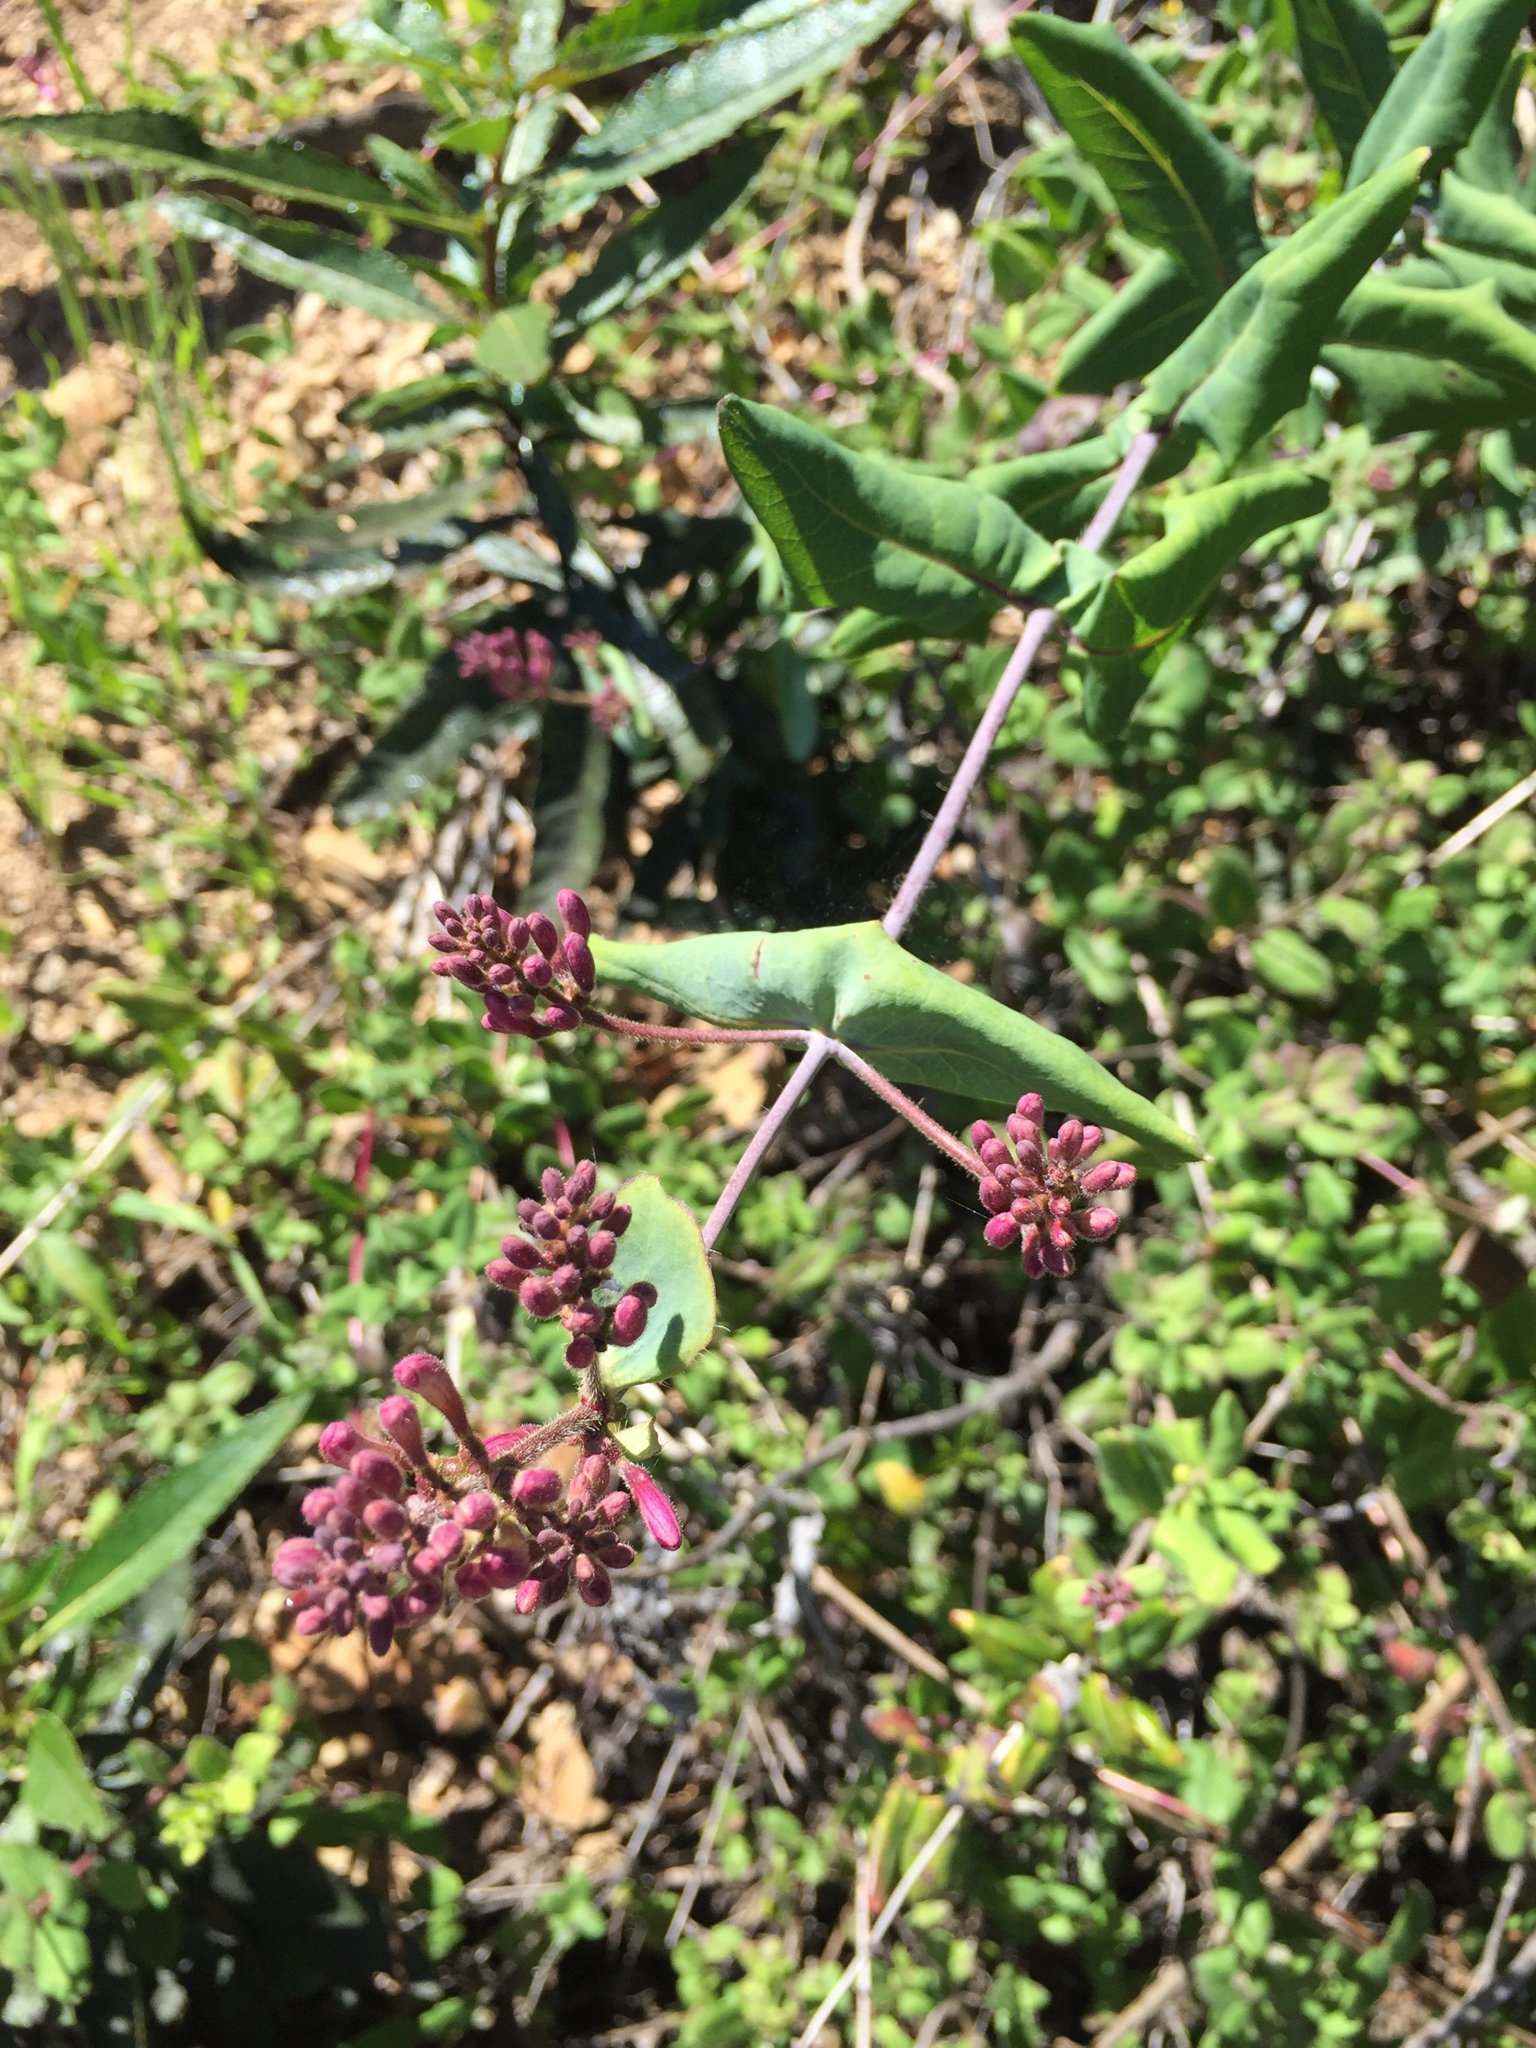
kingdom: Plantae
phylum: Tracheophyta
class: Magnoliopsida
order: Dipsacales
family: Caprifoliaceae
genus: Lonicera
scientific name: Lonicera hispidula
